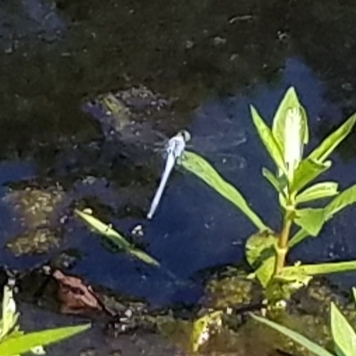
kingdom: Animalia
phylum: Arthropoda
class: Insecta
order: Odonata
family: Libellulidae
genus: Erythemis
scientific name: Erythemis simplicicollis
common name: Eastern pondhawk
